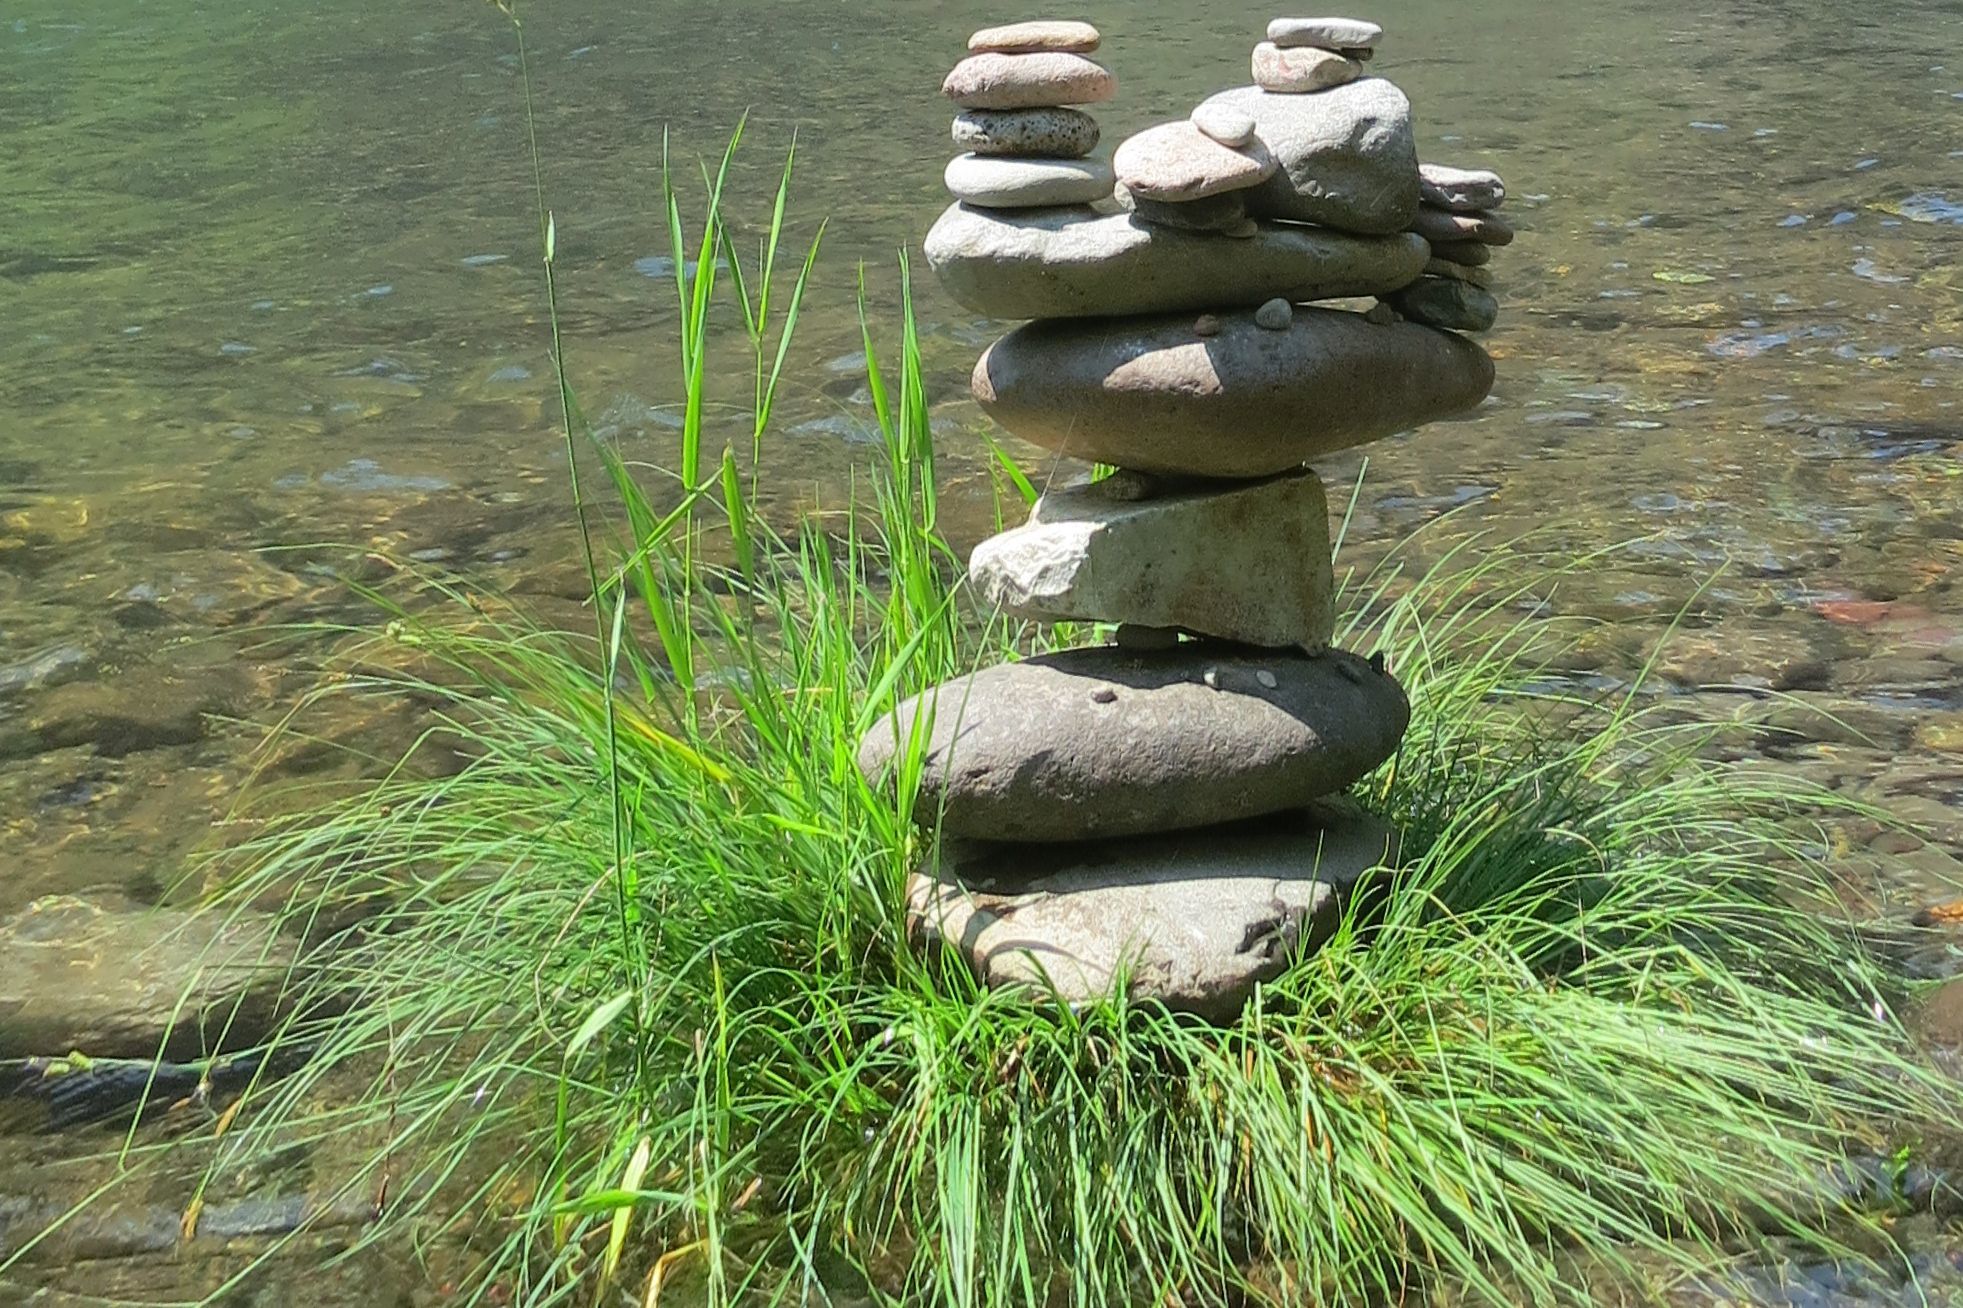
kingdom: Plantae
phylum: Tracheophyta
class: Liliopsida
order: Poales
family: Cyperaceae
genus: Carex
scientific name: Carex nudata
